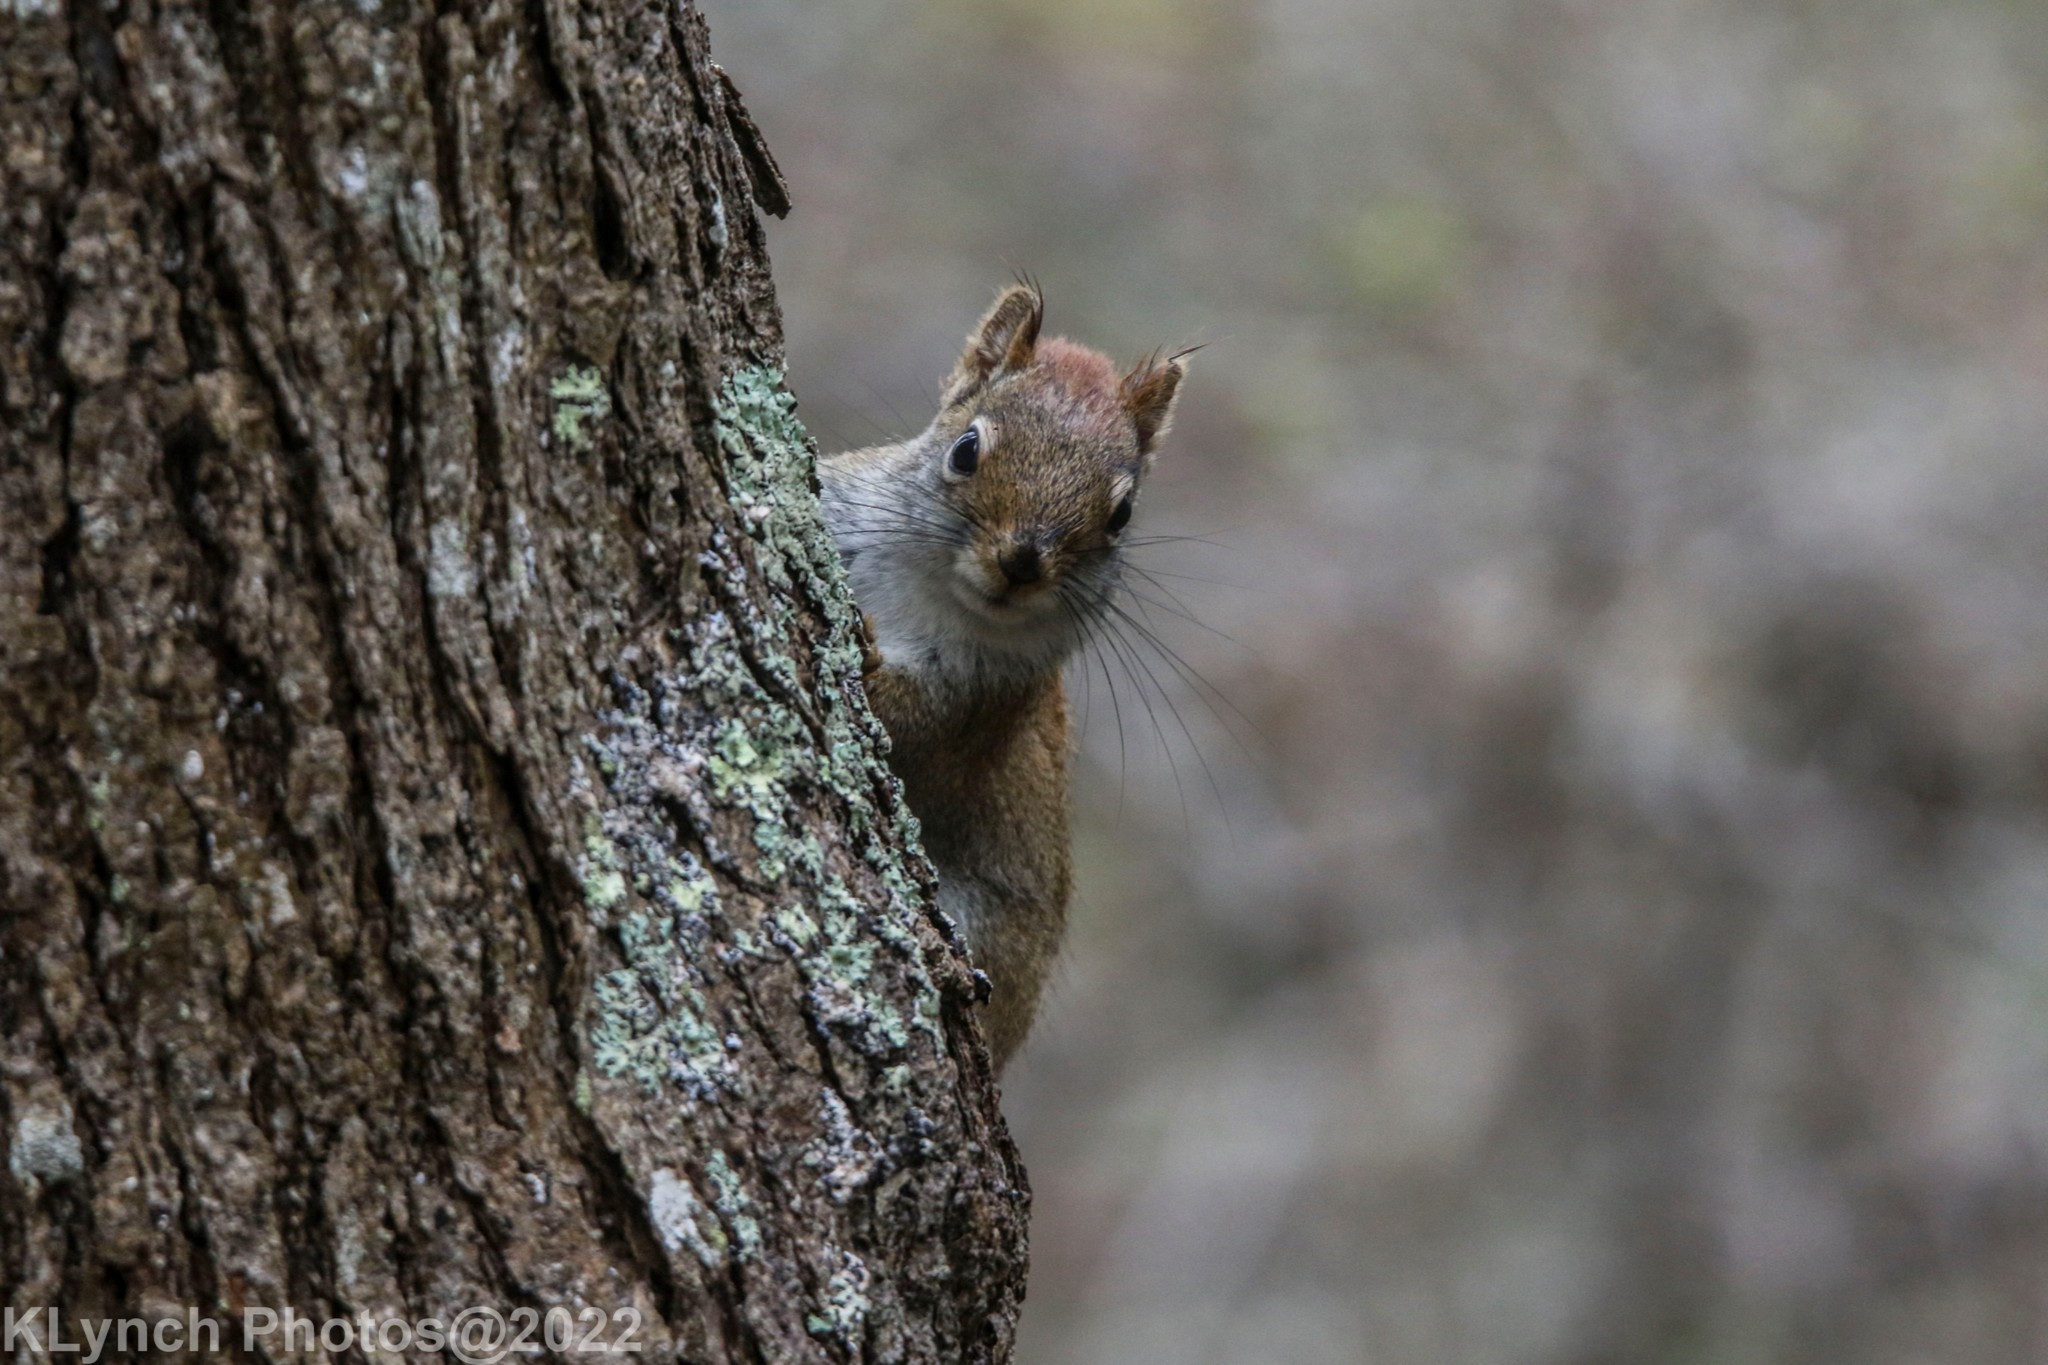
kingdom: Animalia
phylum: Chordata
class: Mammalia
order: Rodentia
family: Sciuridae
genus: Tamiasciurus
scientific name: Tamiasciurus hudsonicus
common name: Red squirrel
